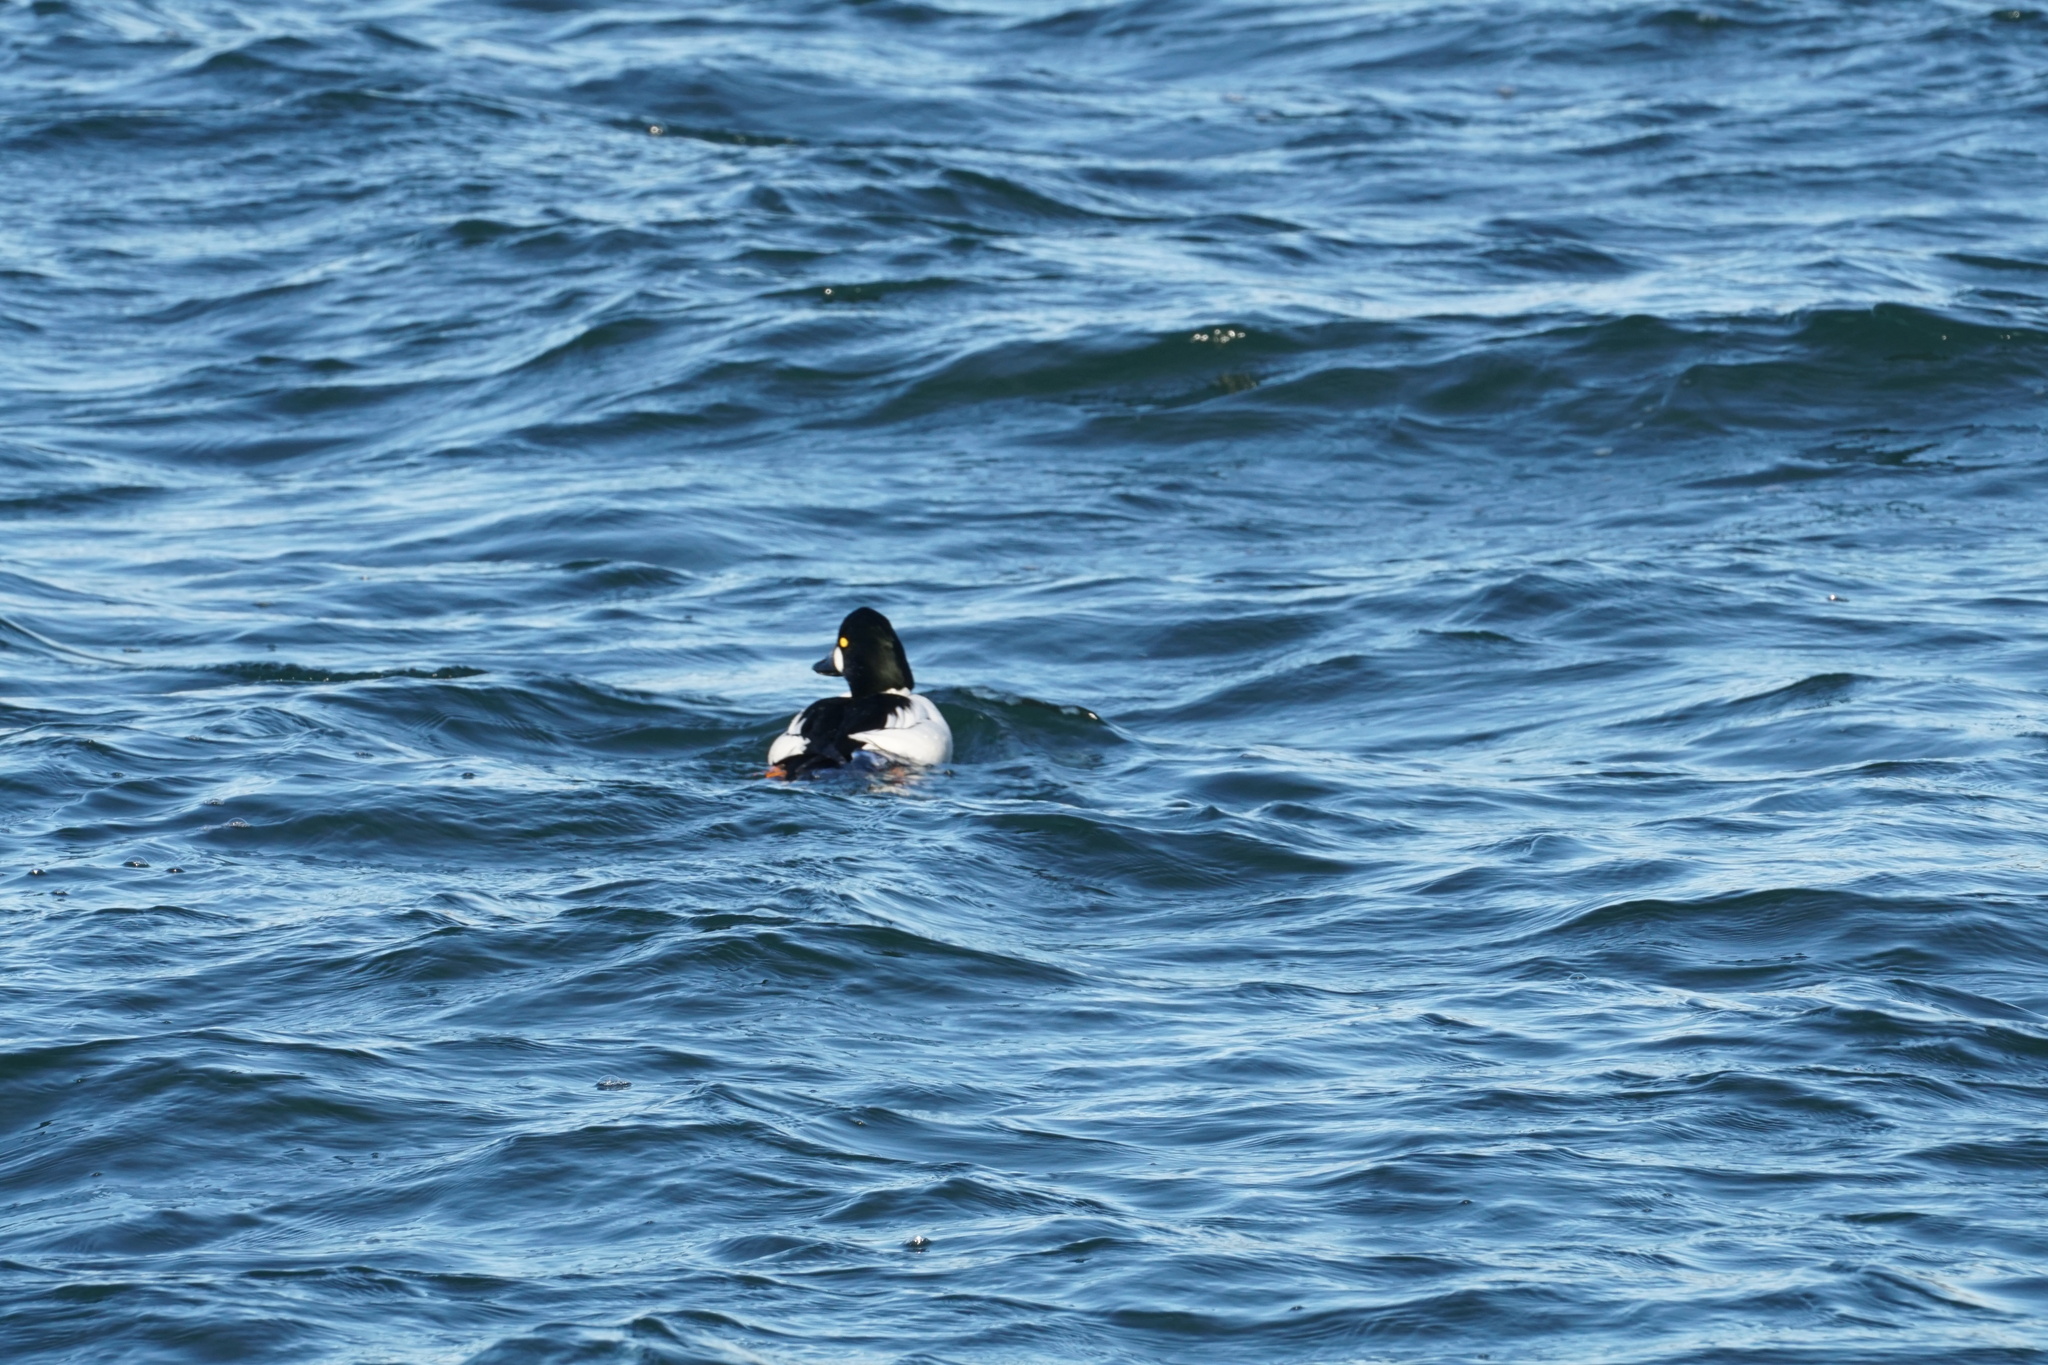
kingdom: Animalia
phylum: Chordata
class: Aves
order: Anseriformes
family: Anatidae
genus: Bucephala
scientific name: Bucephala clangula
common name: Common goldeneye
